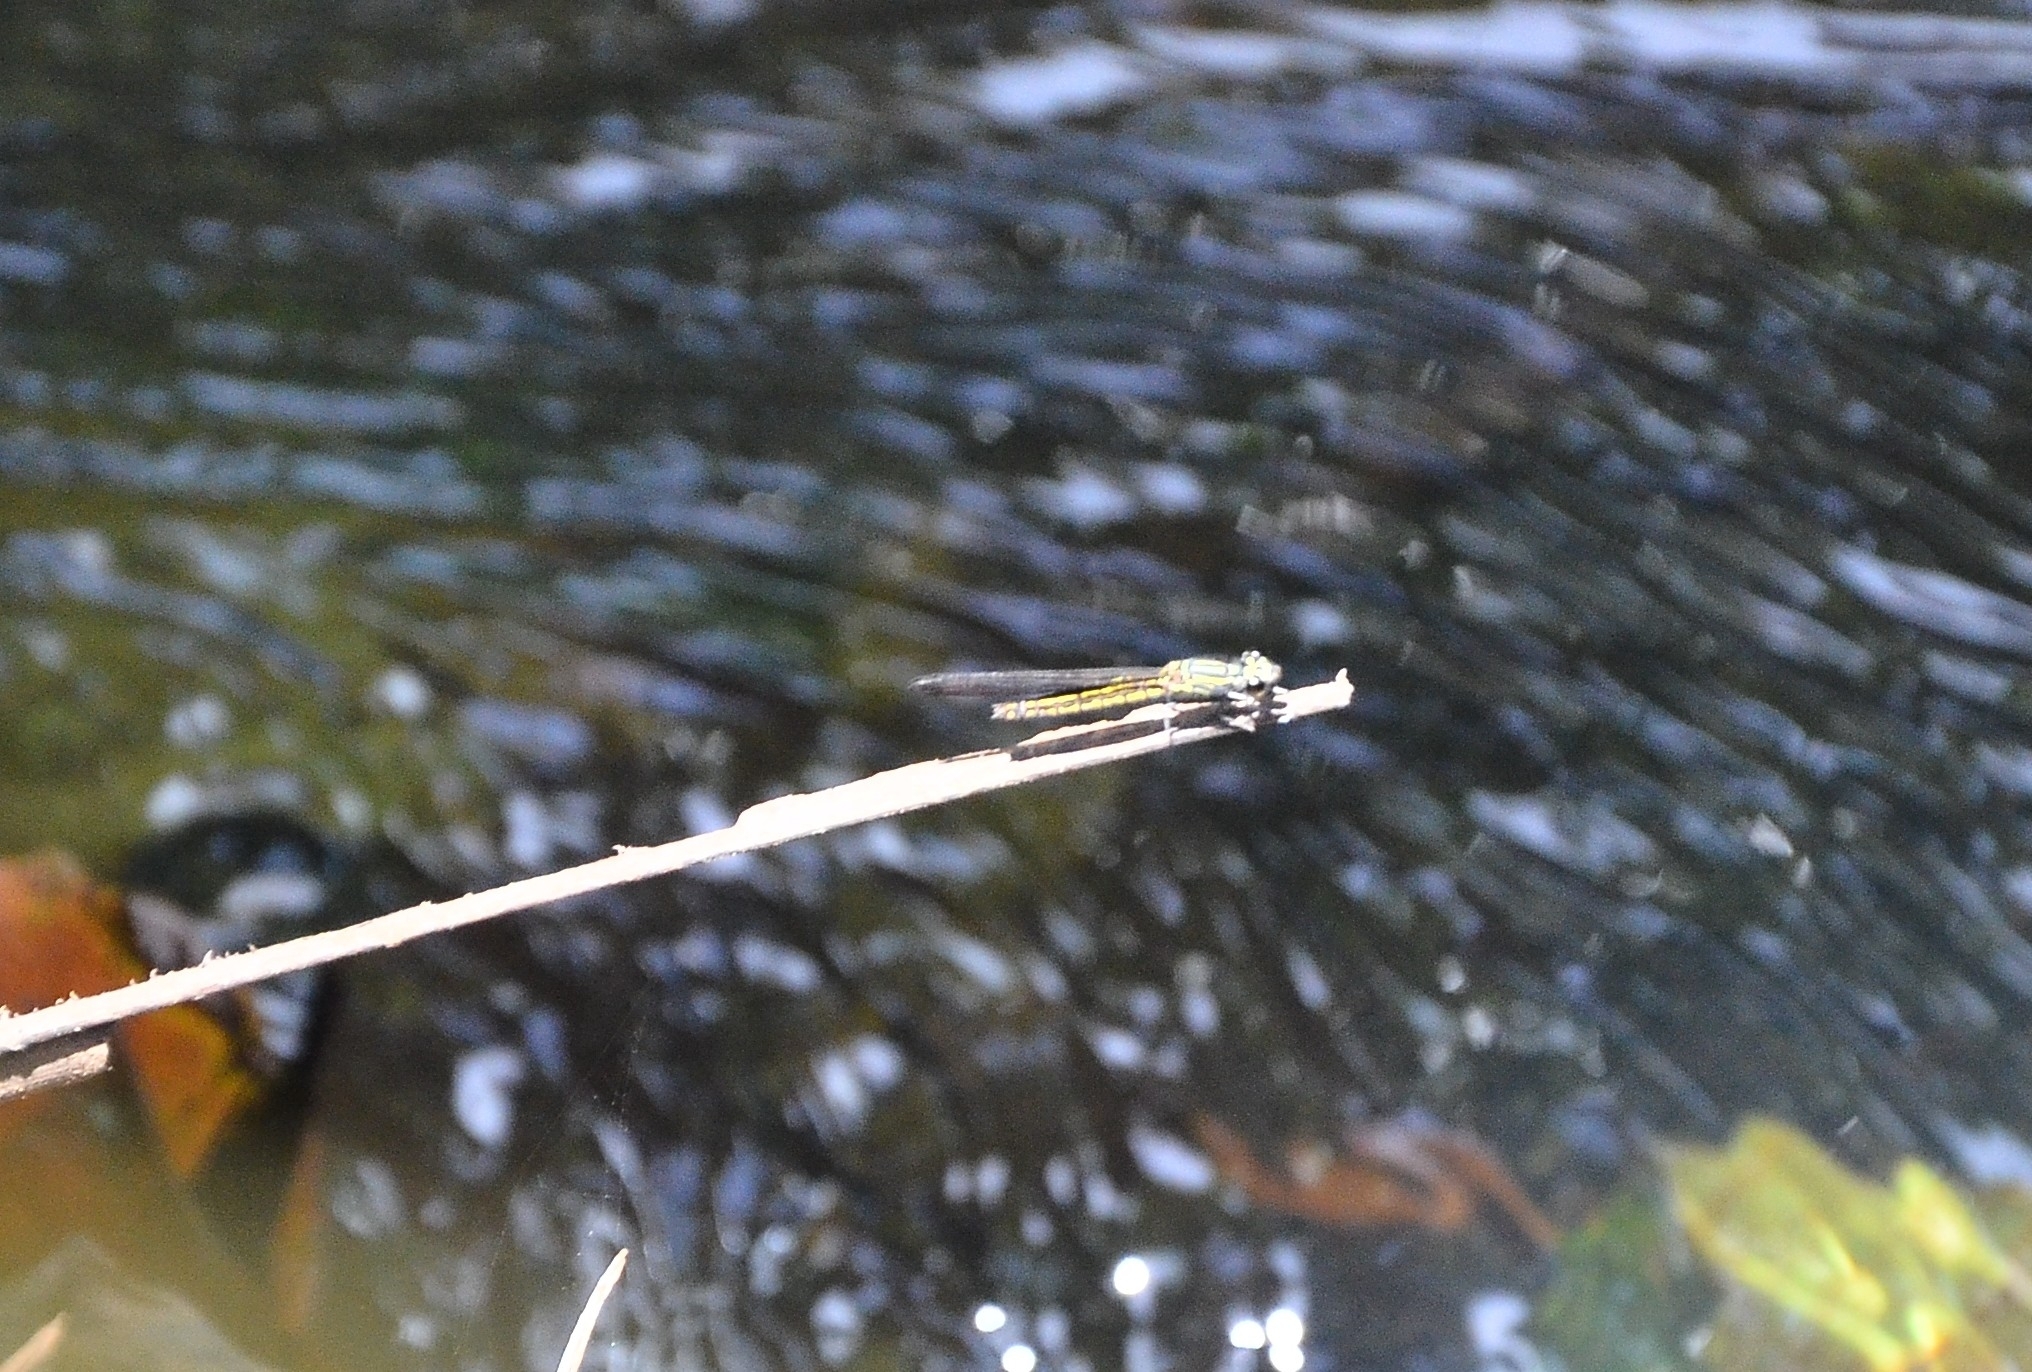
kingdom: Animalia
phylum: Arthropoda
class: Insecta
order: Odonata
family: Chlorocyphidae
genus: Libellago
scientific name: Libellago indica
